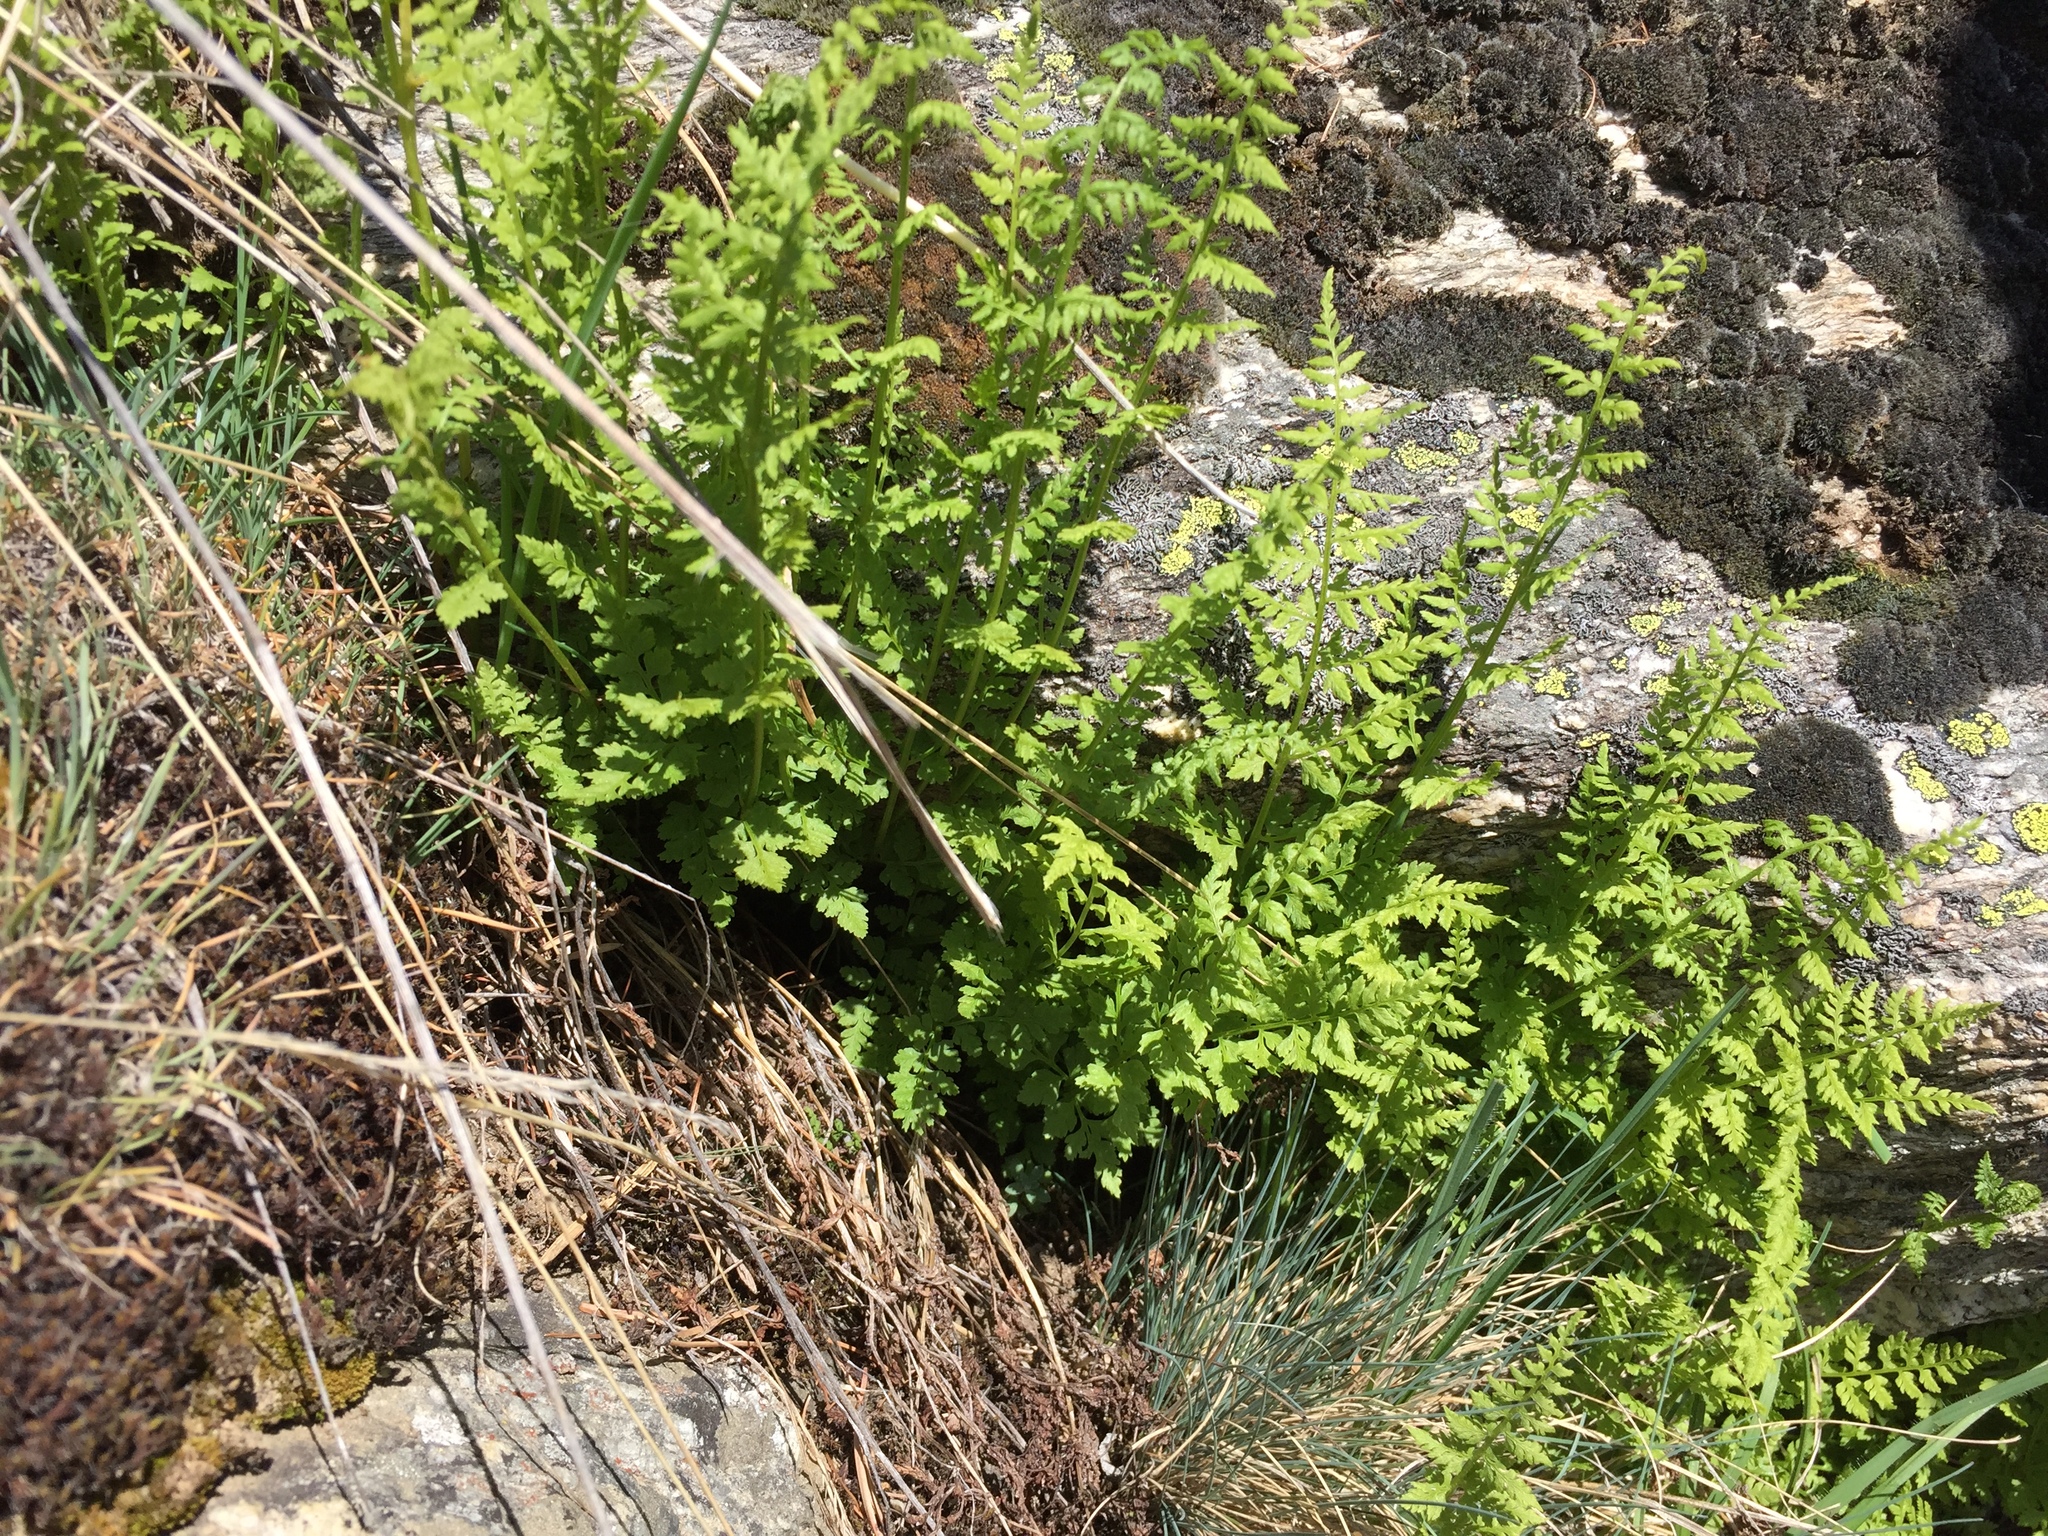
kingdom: Plantae
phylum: Tracheophyta
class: Polypodiopsida
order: Polypodiales
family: Cystopteridaceae
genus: Cystopteris
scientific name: Cystopteris fragilis
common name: Brittle bladder fern
